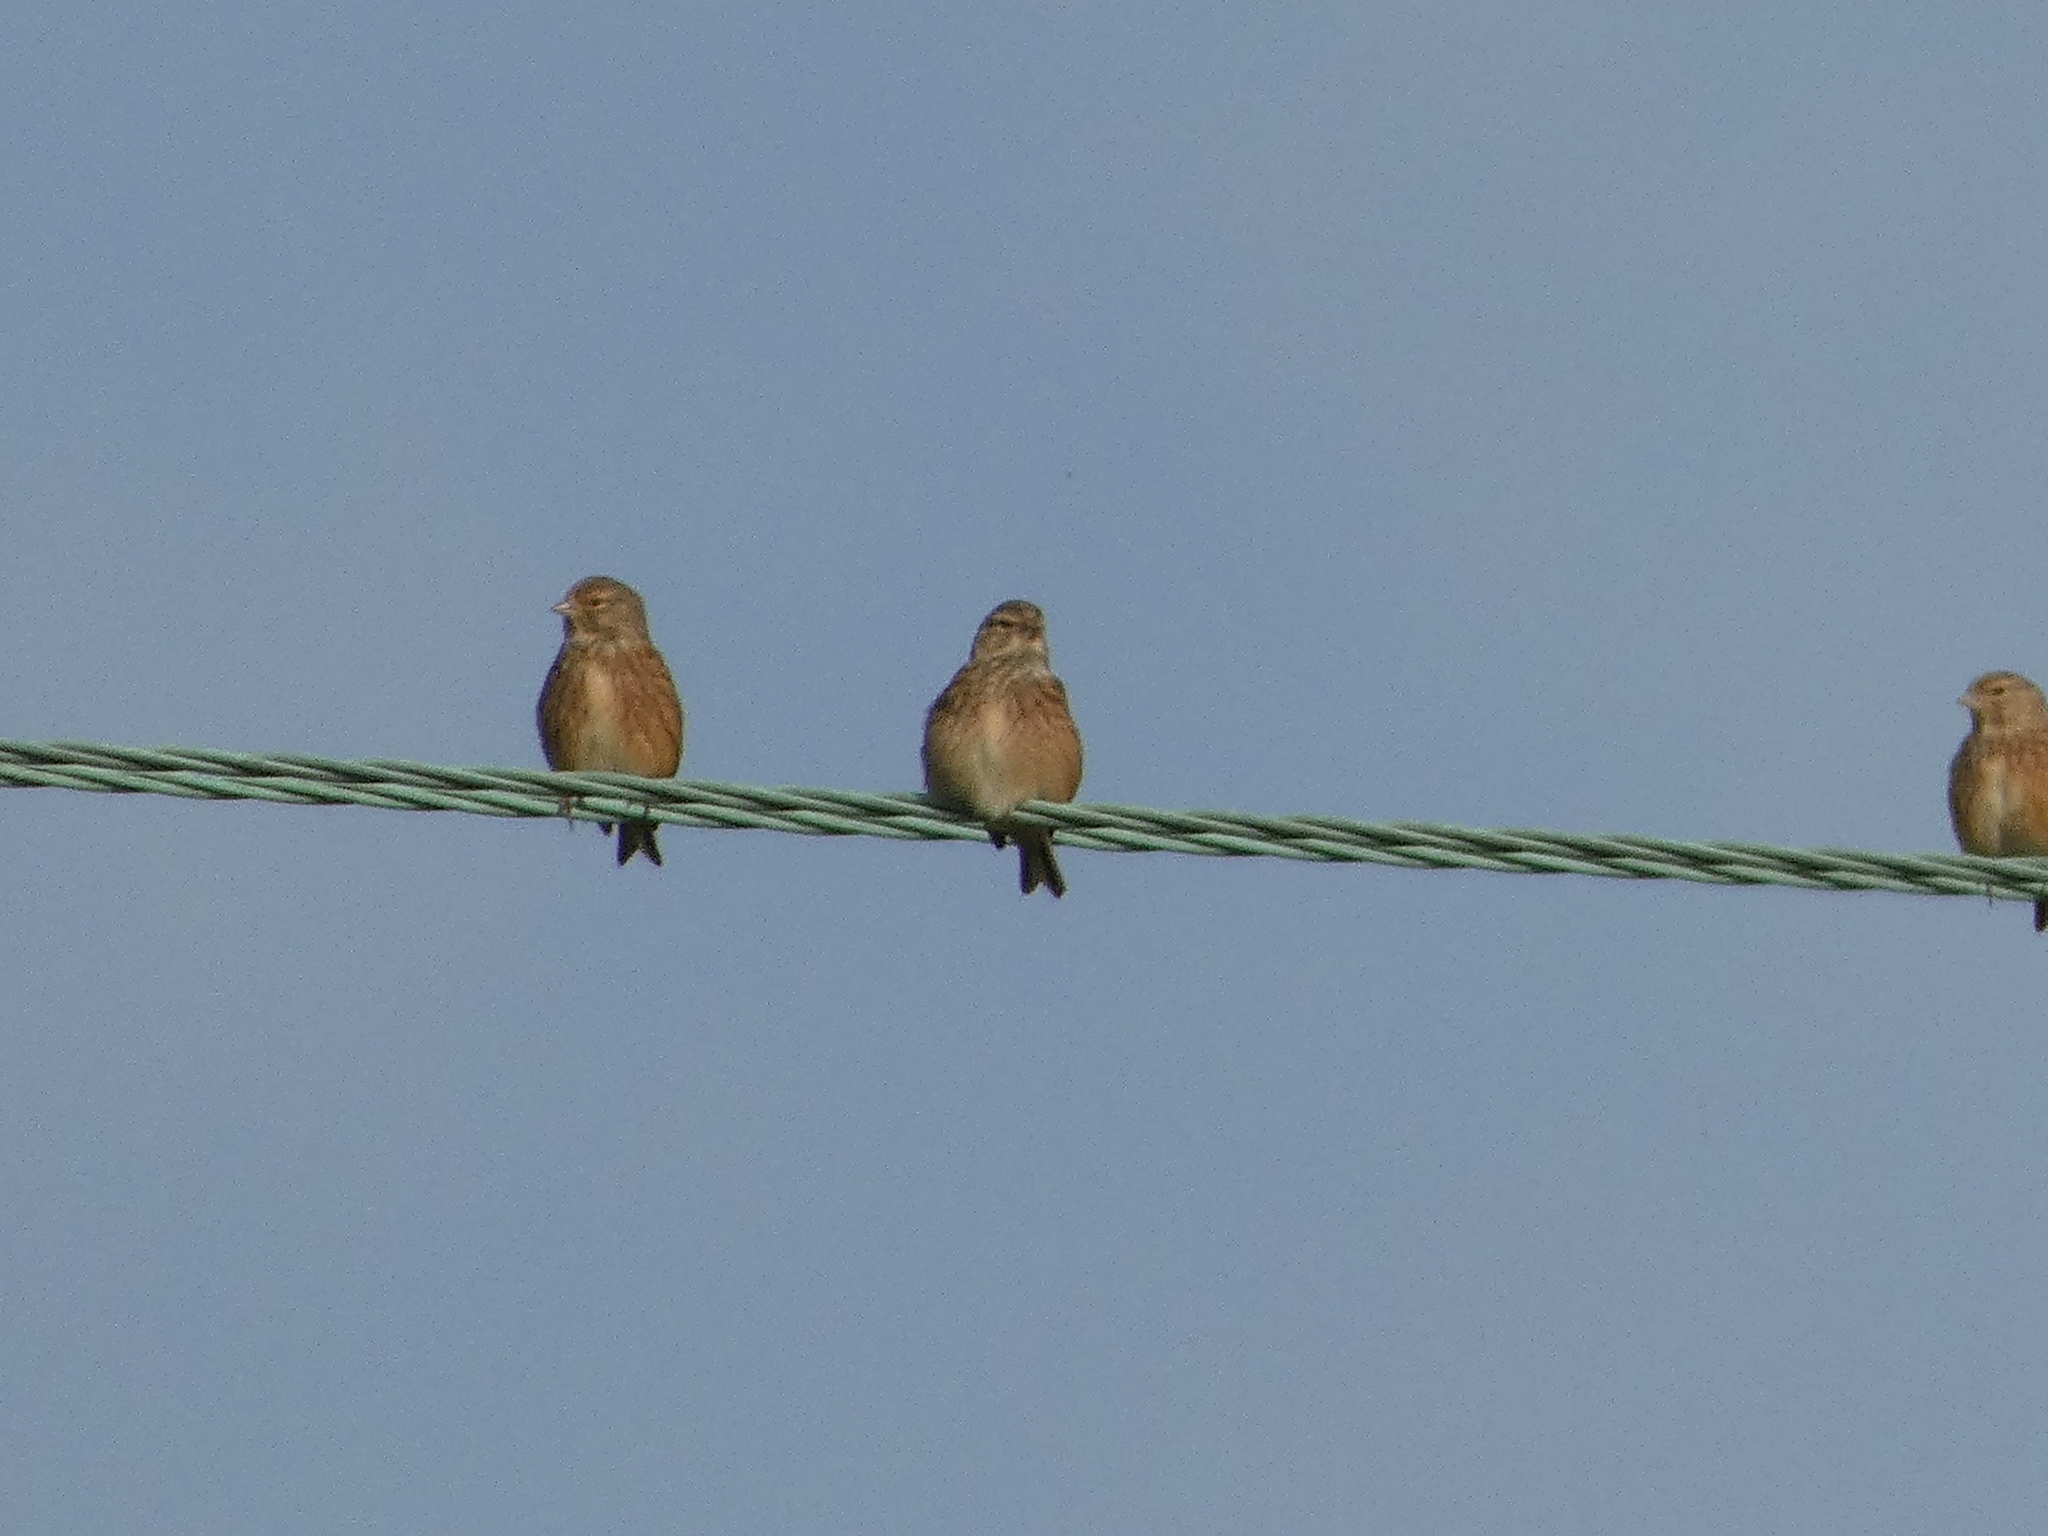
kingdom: Animalia
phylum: Chordata
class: Aves
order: Passeriformes
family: Fringillidae
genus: Linaria
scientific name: Linaria cannabina
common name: Common linnet
